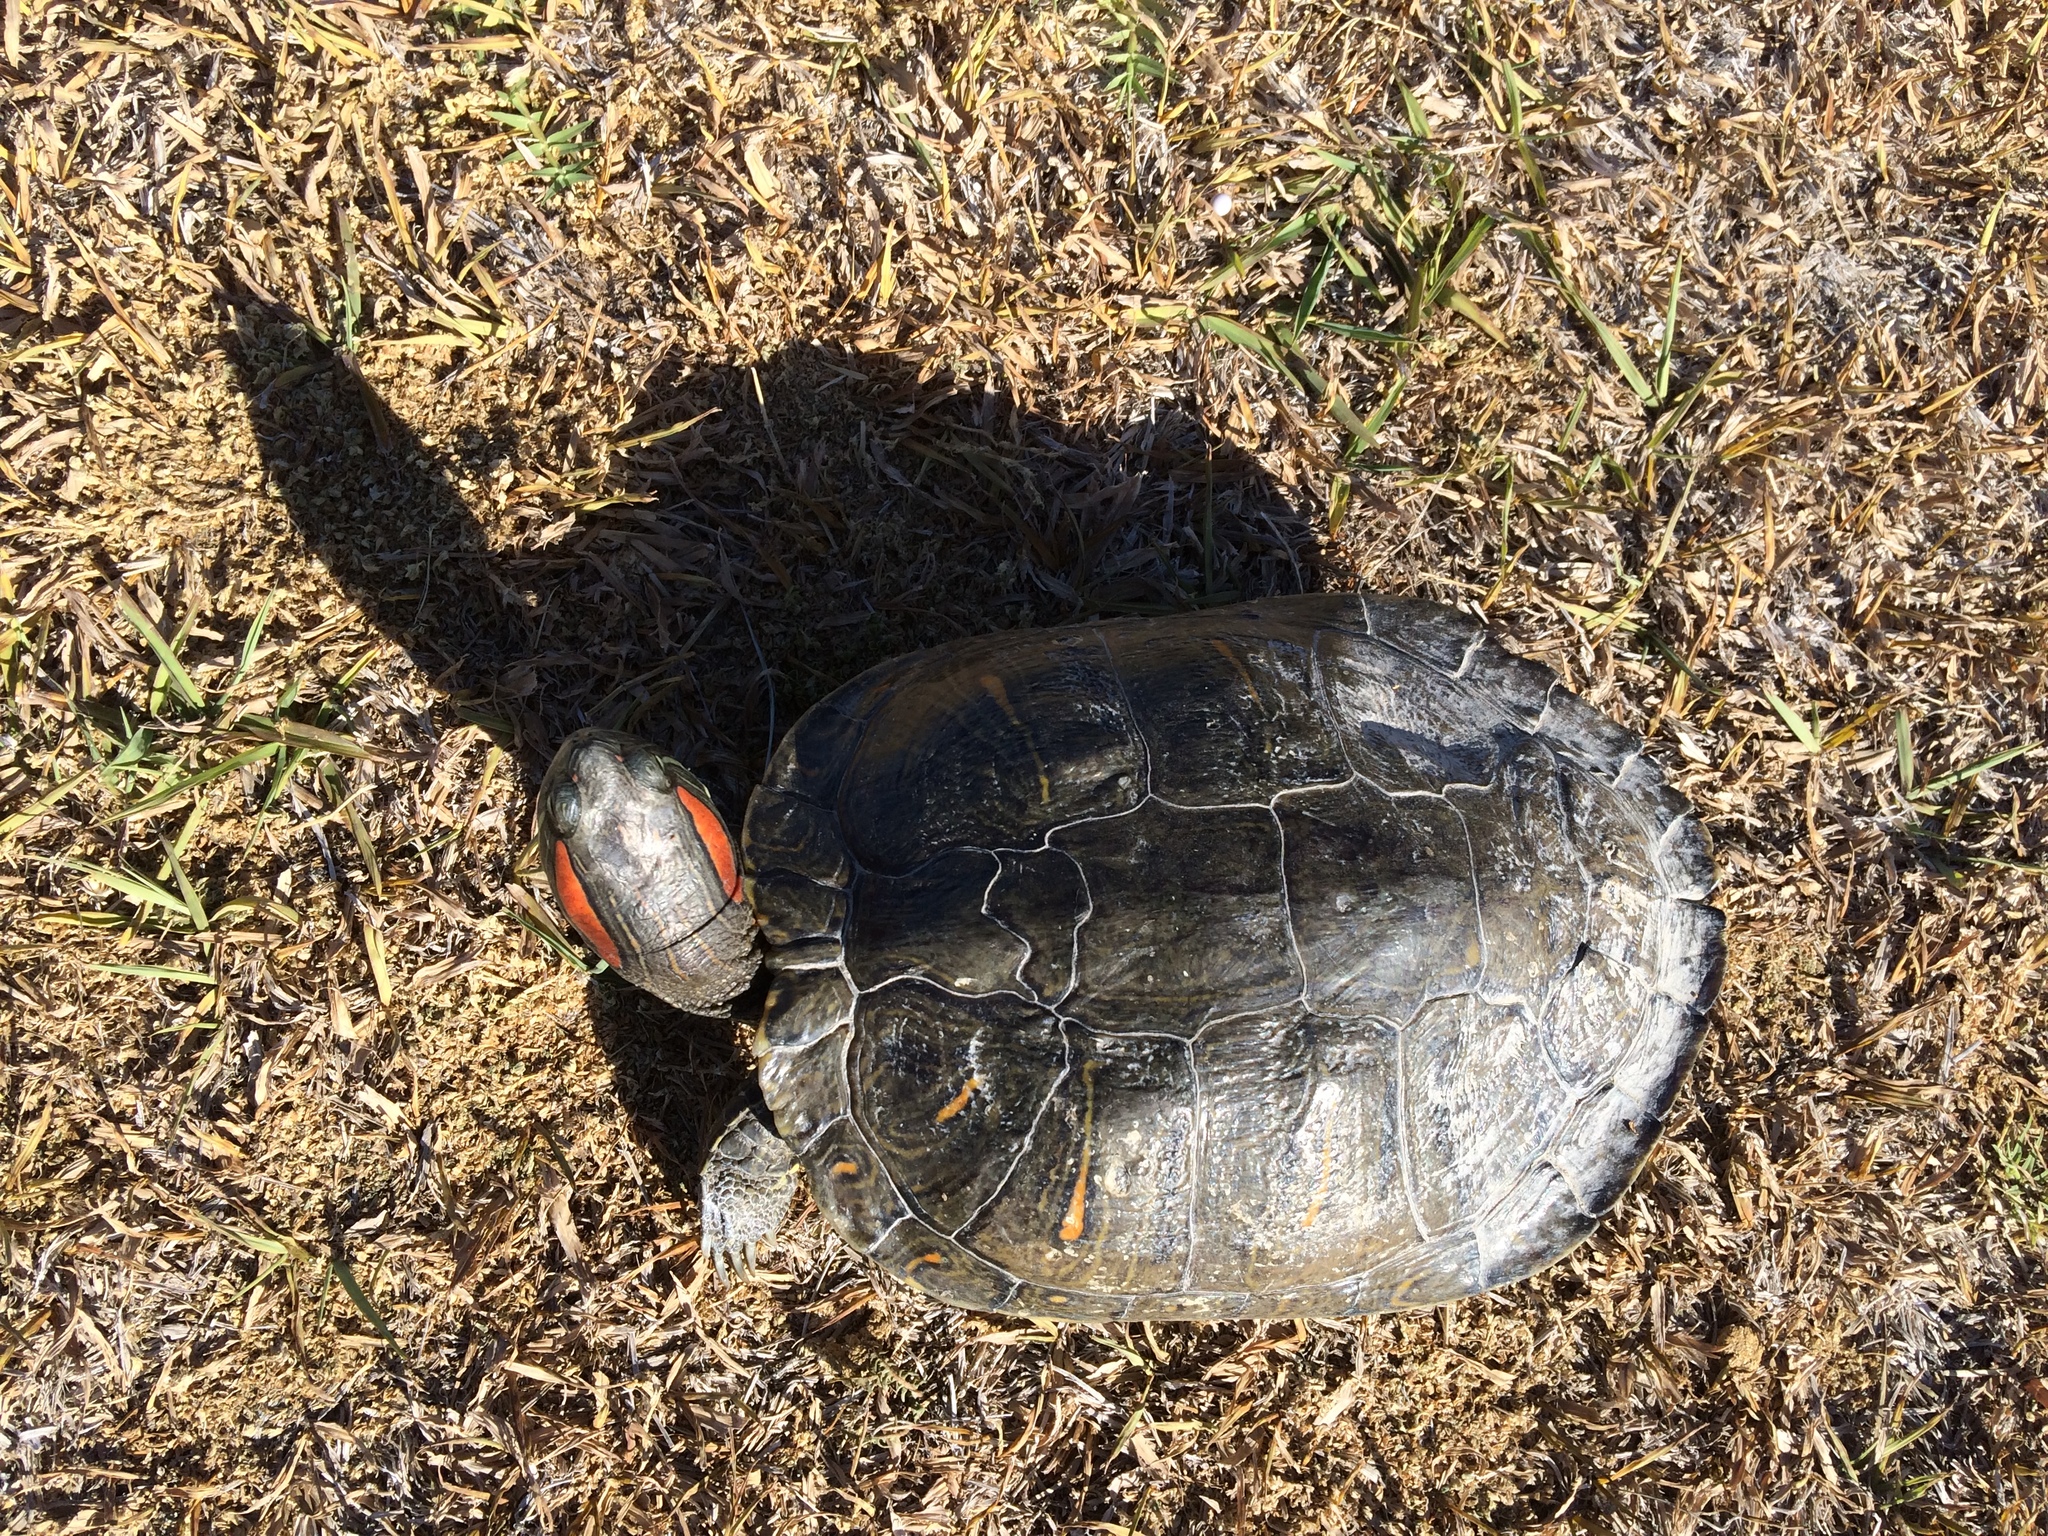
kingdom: Animalia
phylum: Chordata
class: Testudines
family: Emydidae
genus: Trachemys
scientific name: Trachemys scripta
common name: Slider
